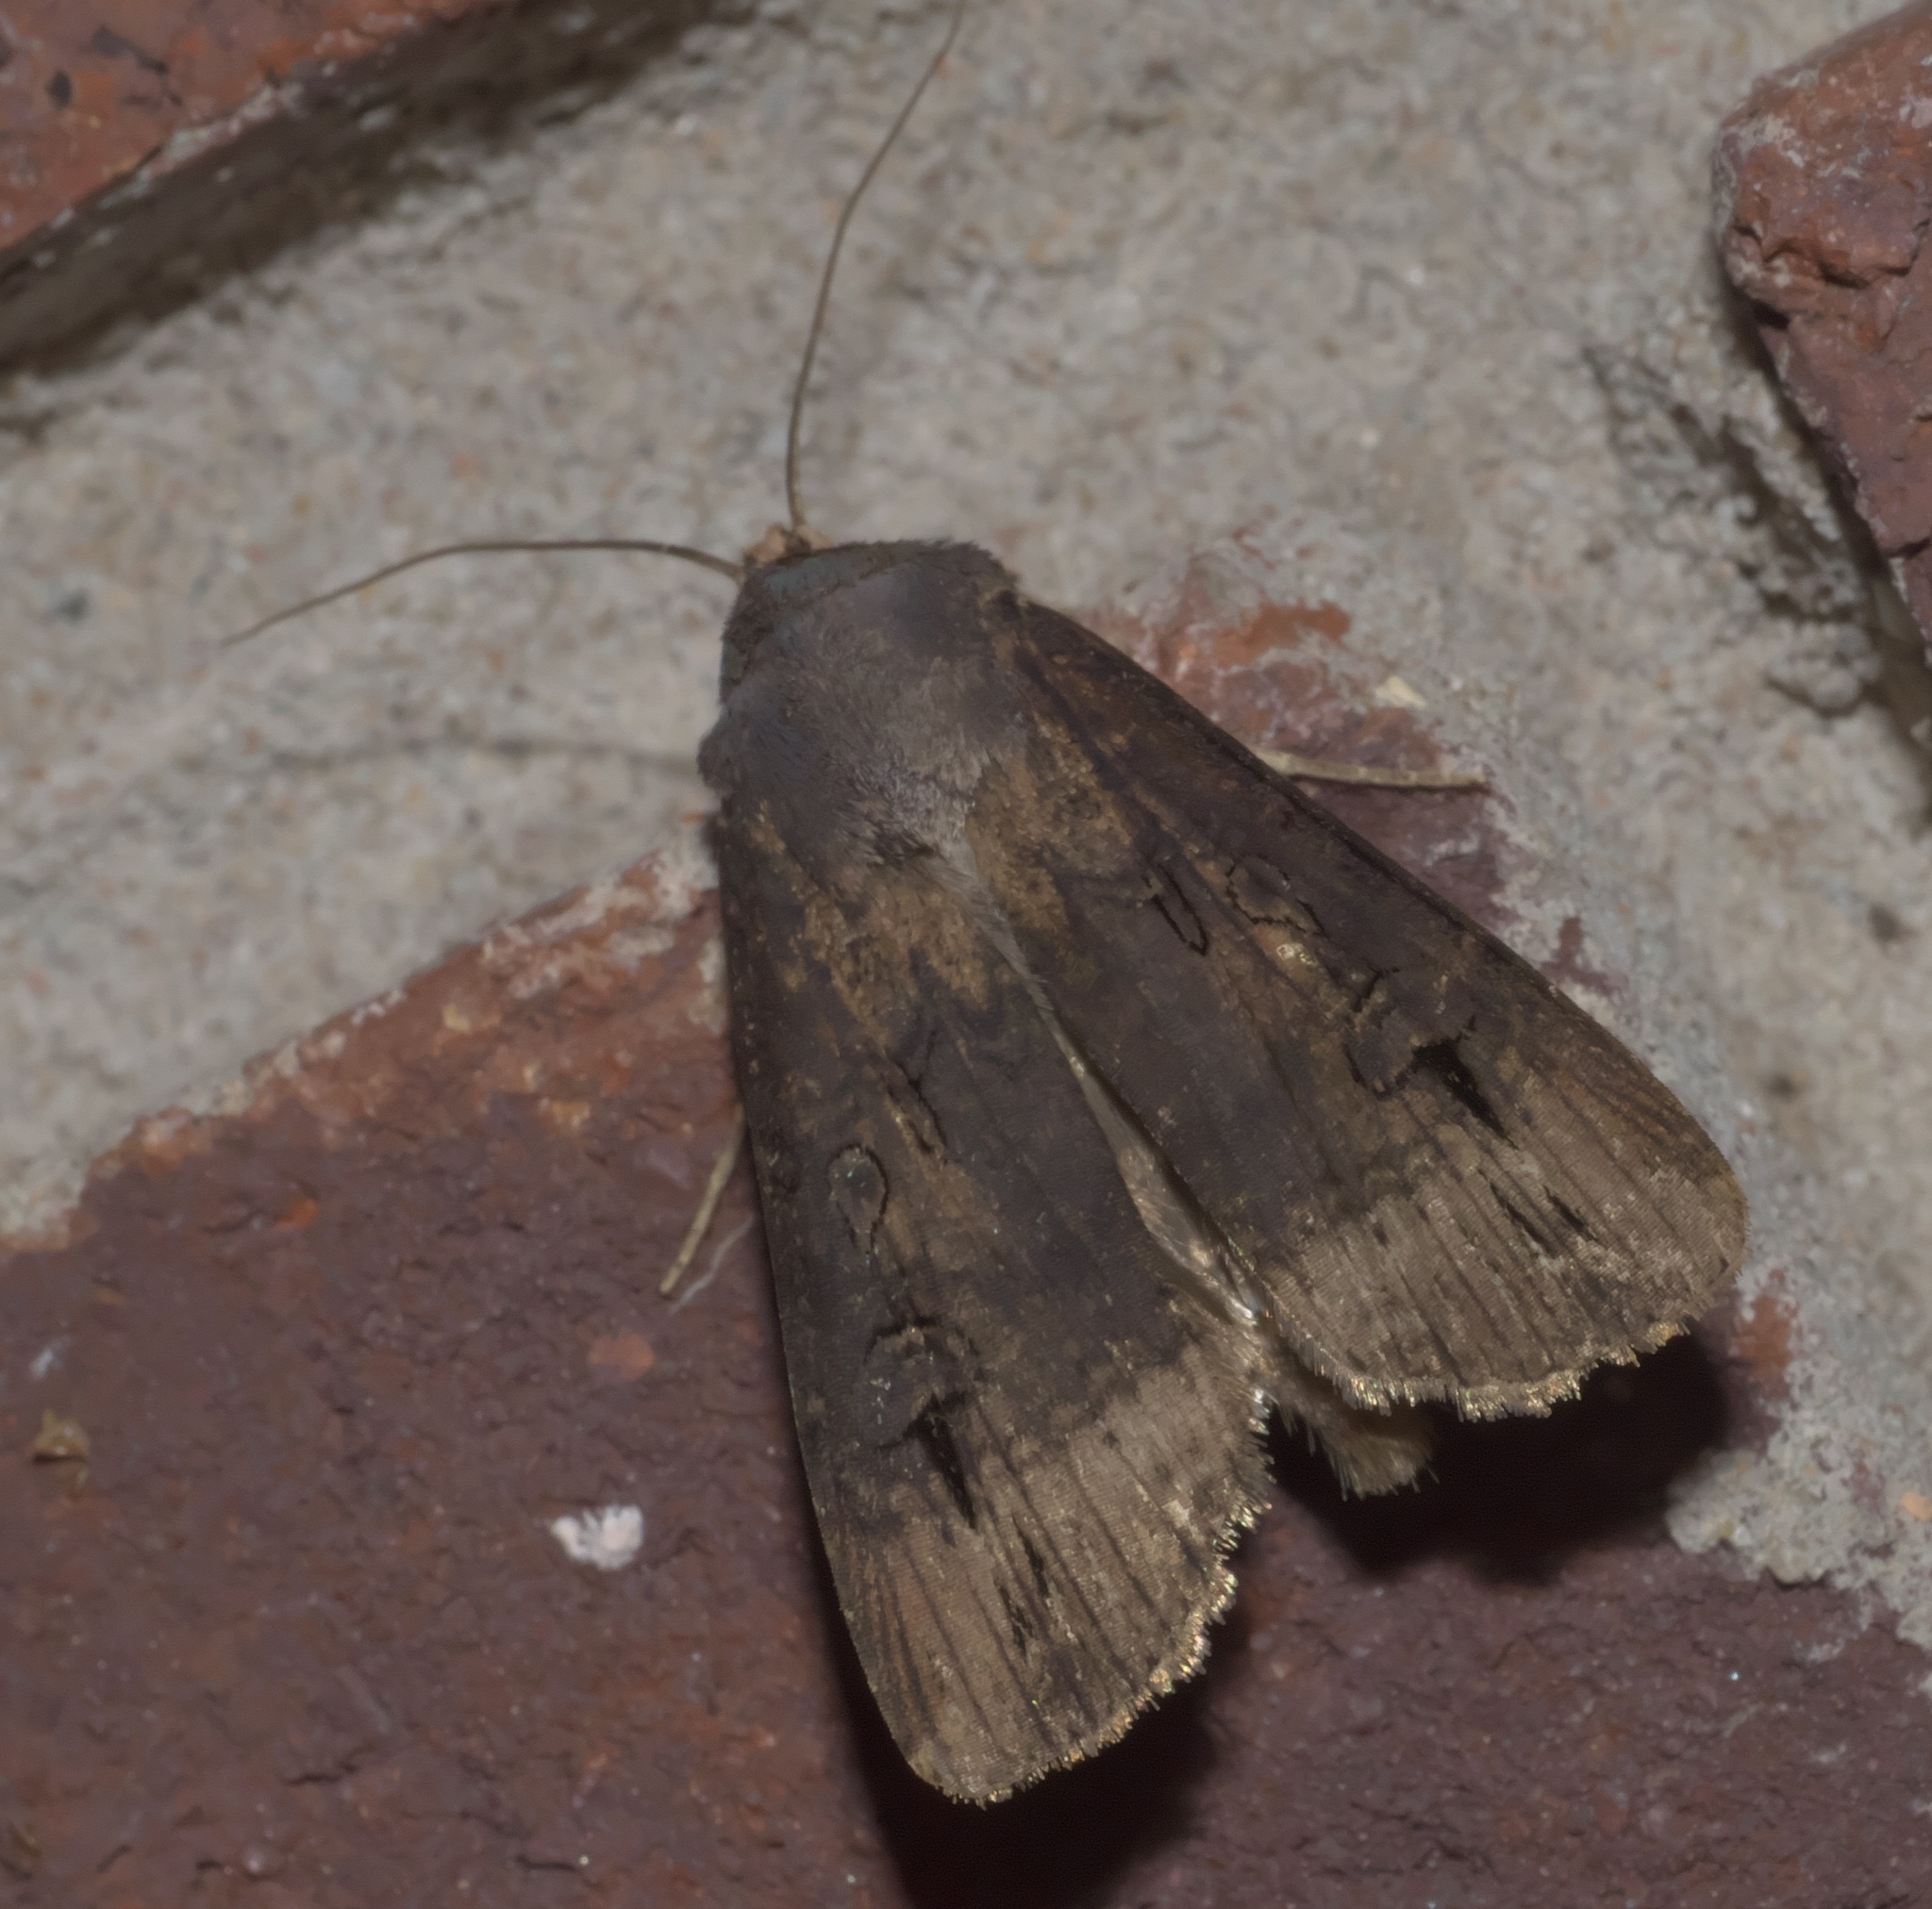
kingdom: Animalia
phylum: Arthropoda
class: Insecta
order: Lepidoptera
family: Noctuidae
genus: Agrotis
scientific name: Agrotis ipsilon
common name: Dark sword-grass
